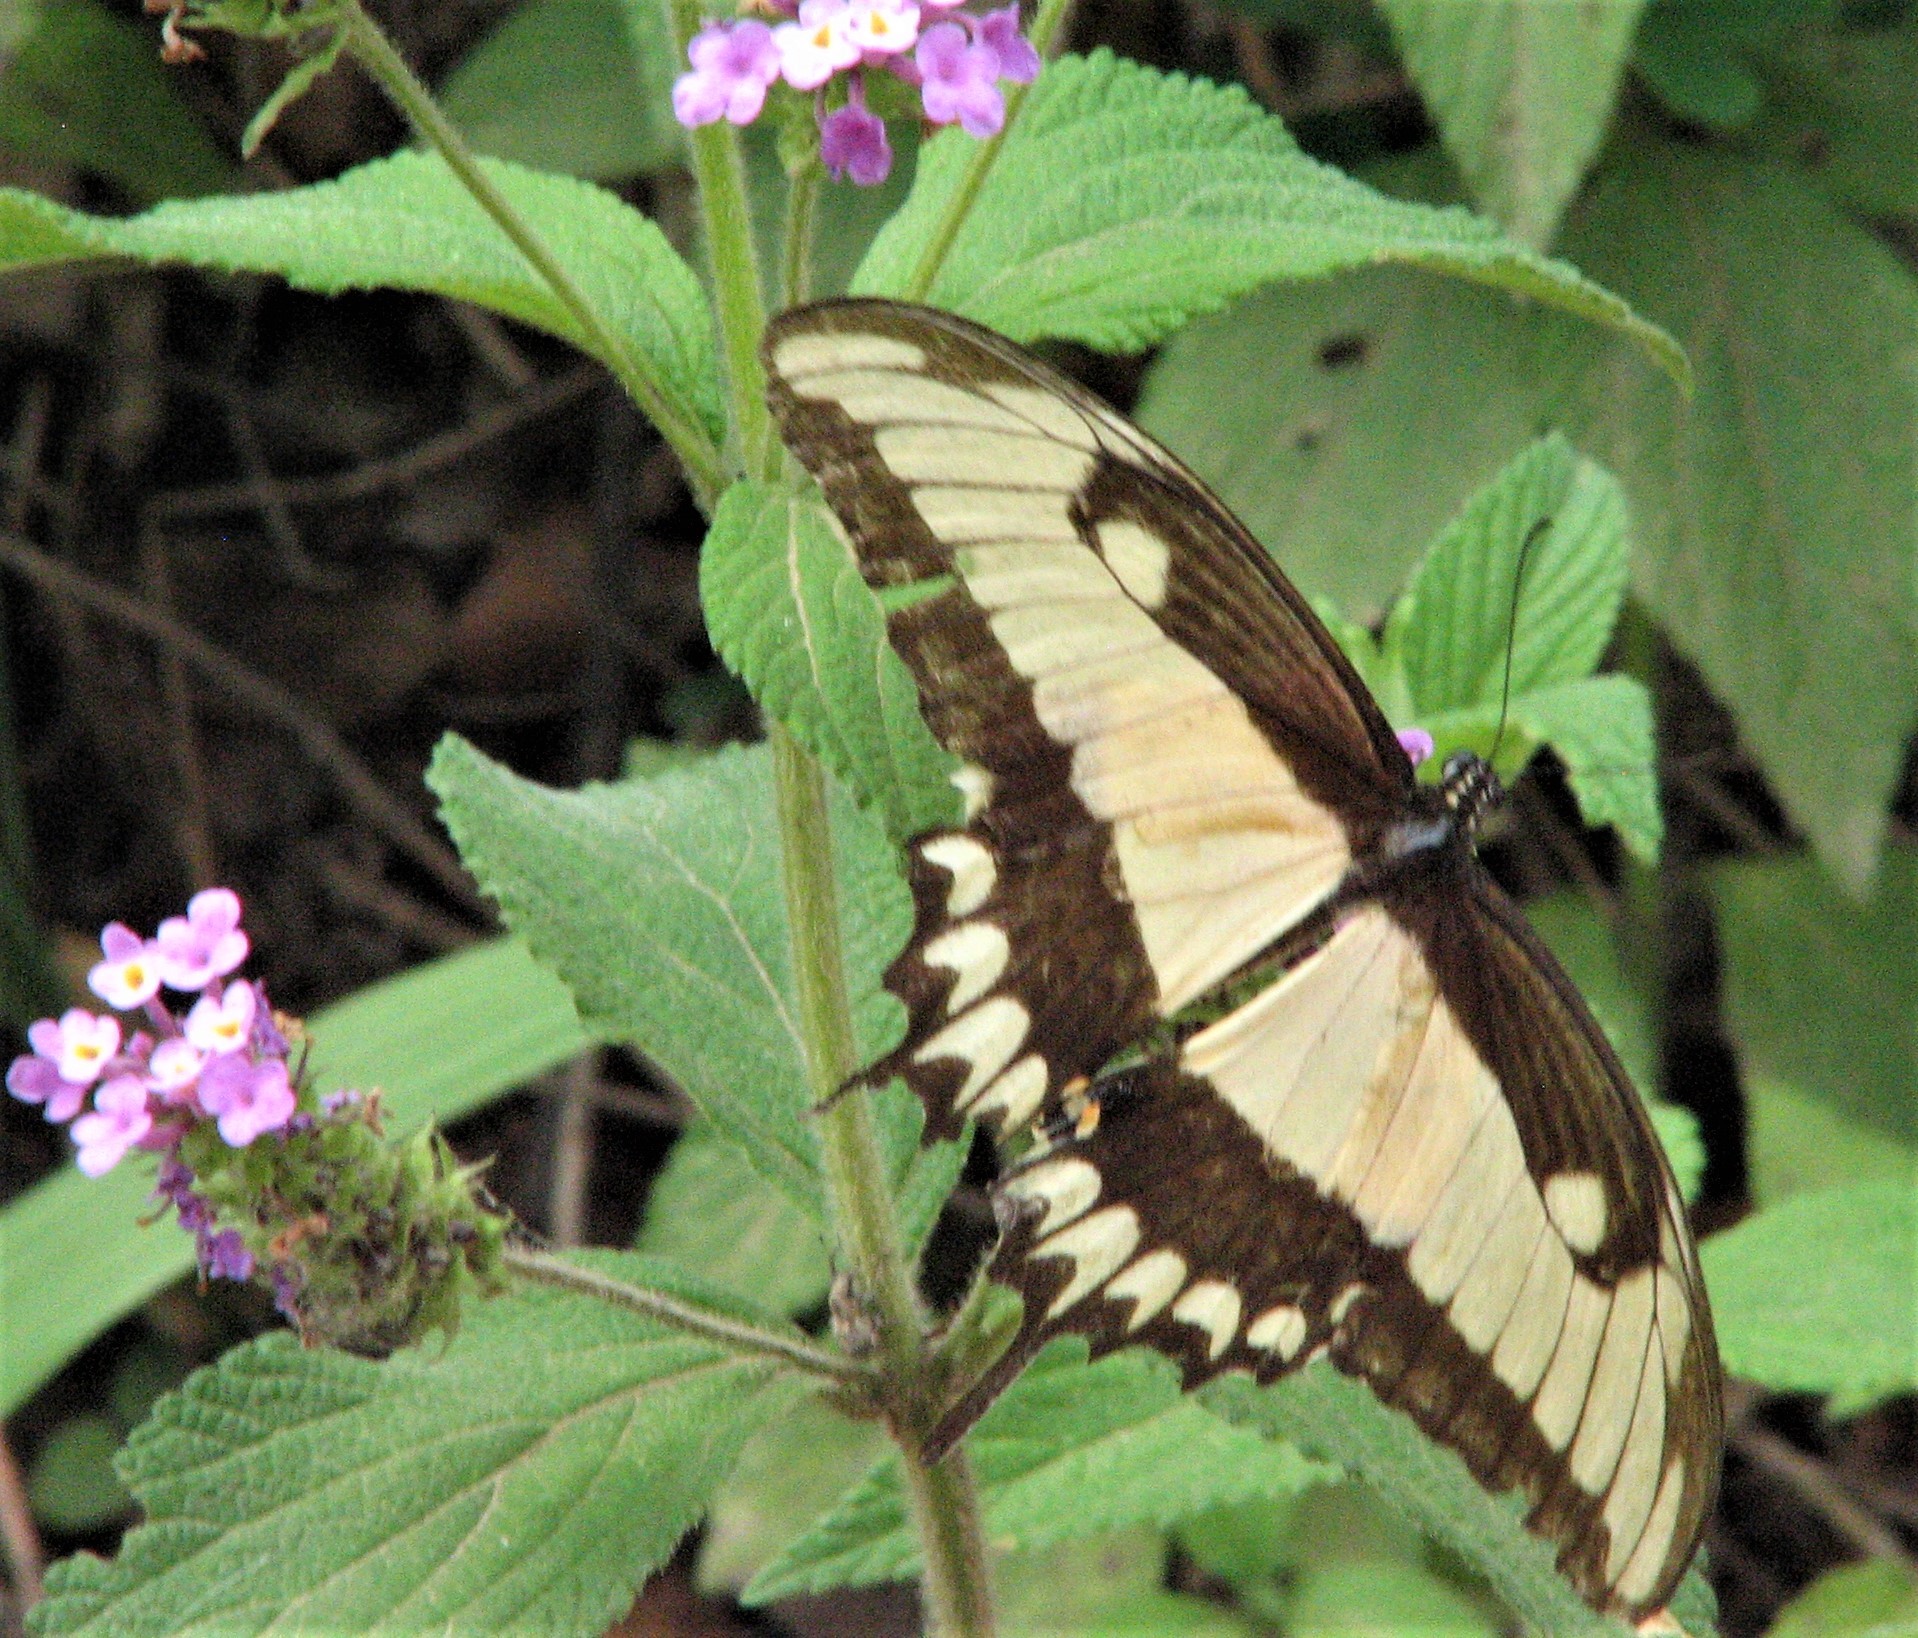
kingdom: Animalia
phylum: Arthropoda
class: Insecta
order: Lepidoptera
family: Papilionidae
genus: Papilio
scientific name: Papilio astyalus
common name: Astyalus swallowtail
